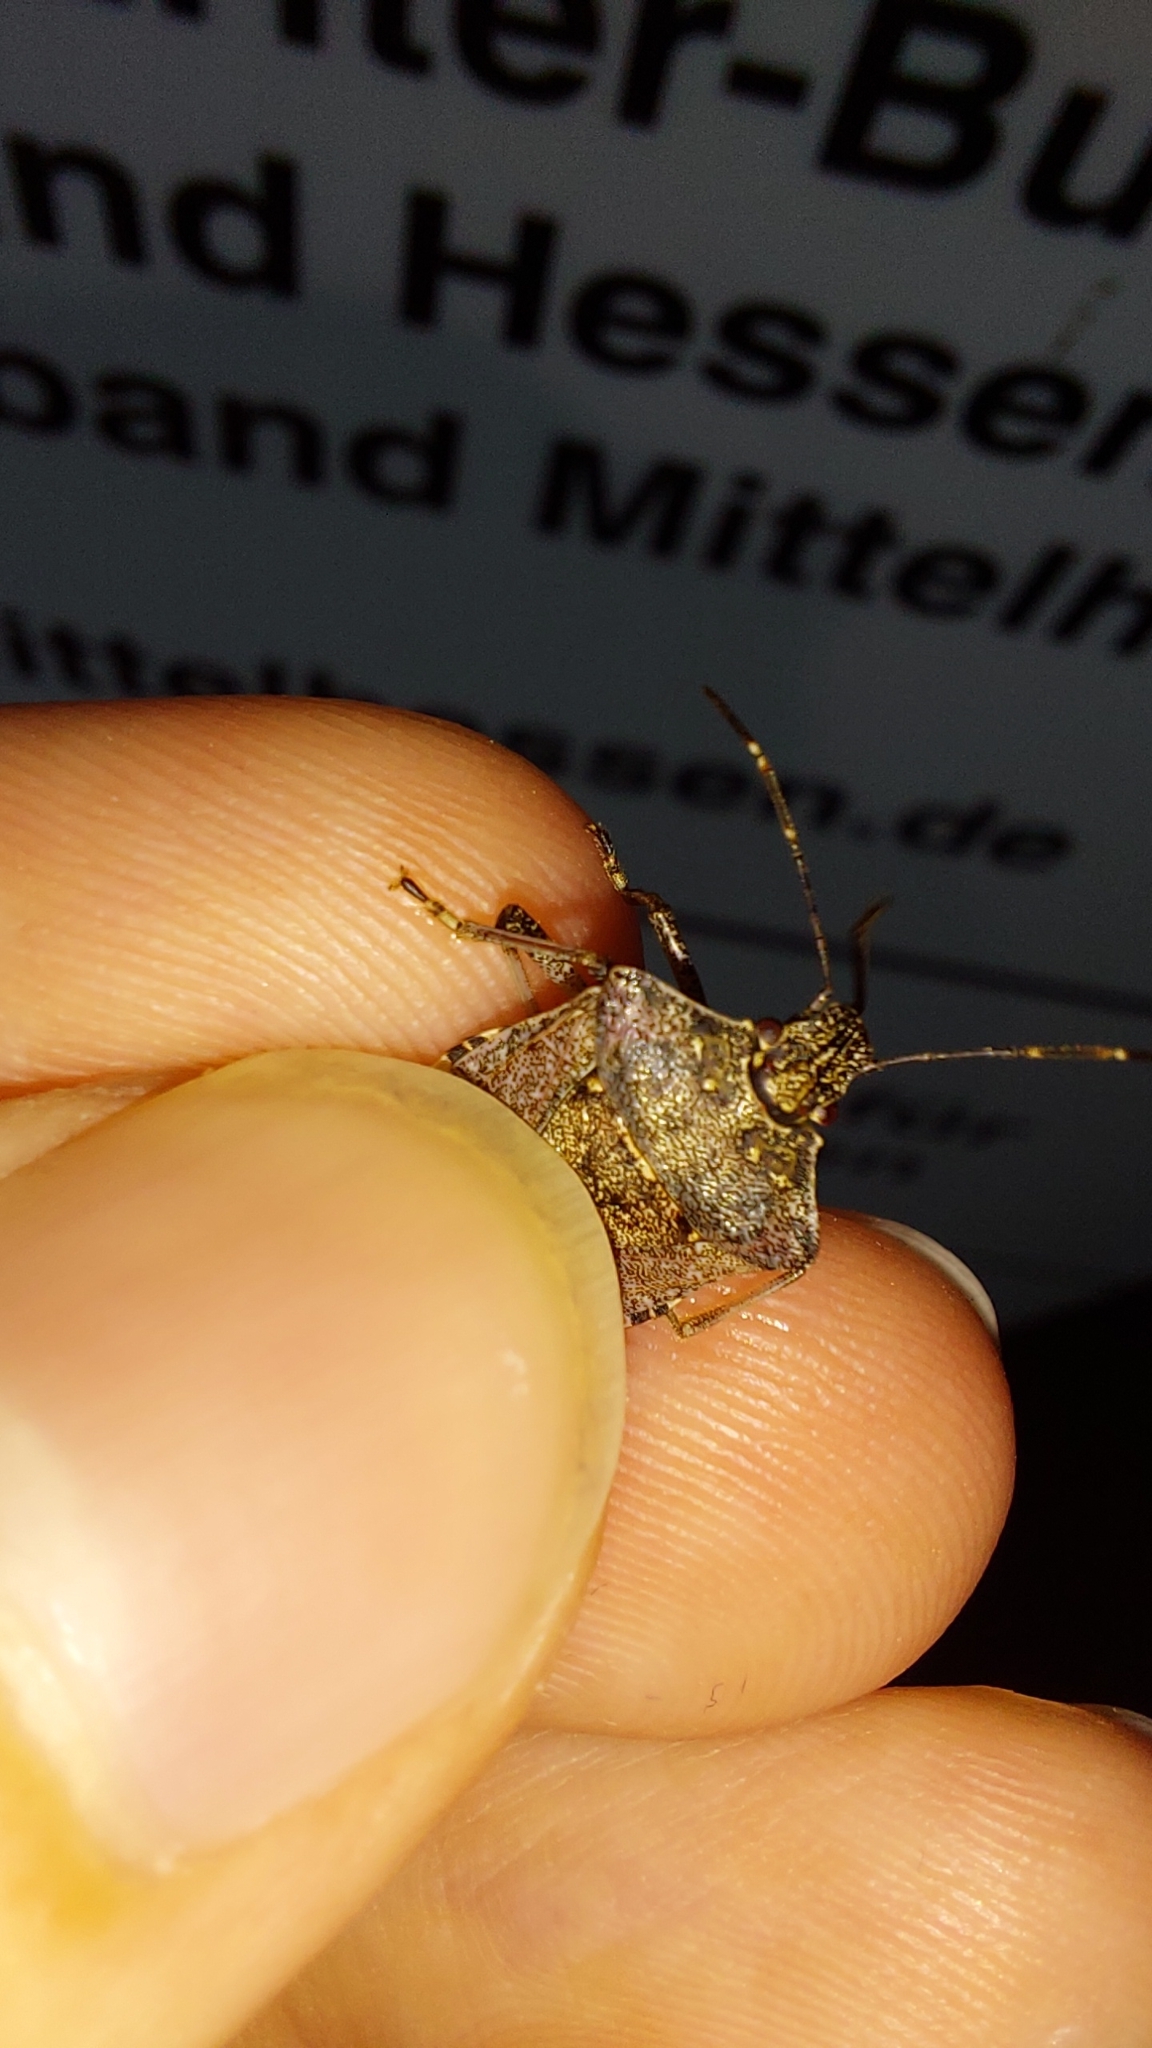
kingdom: Animalia
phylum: Arthropoda
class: Insecta
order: Hemiptera
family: Pentatomidae
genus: Halyomorpha
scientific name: Halyomorpha halys
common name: Brown marmorated stink bug
